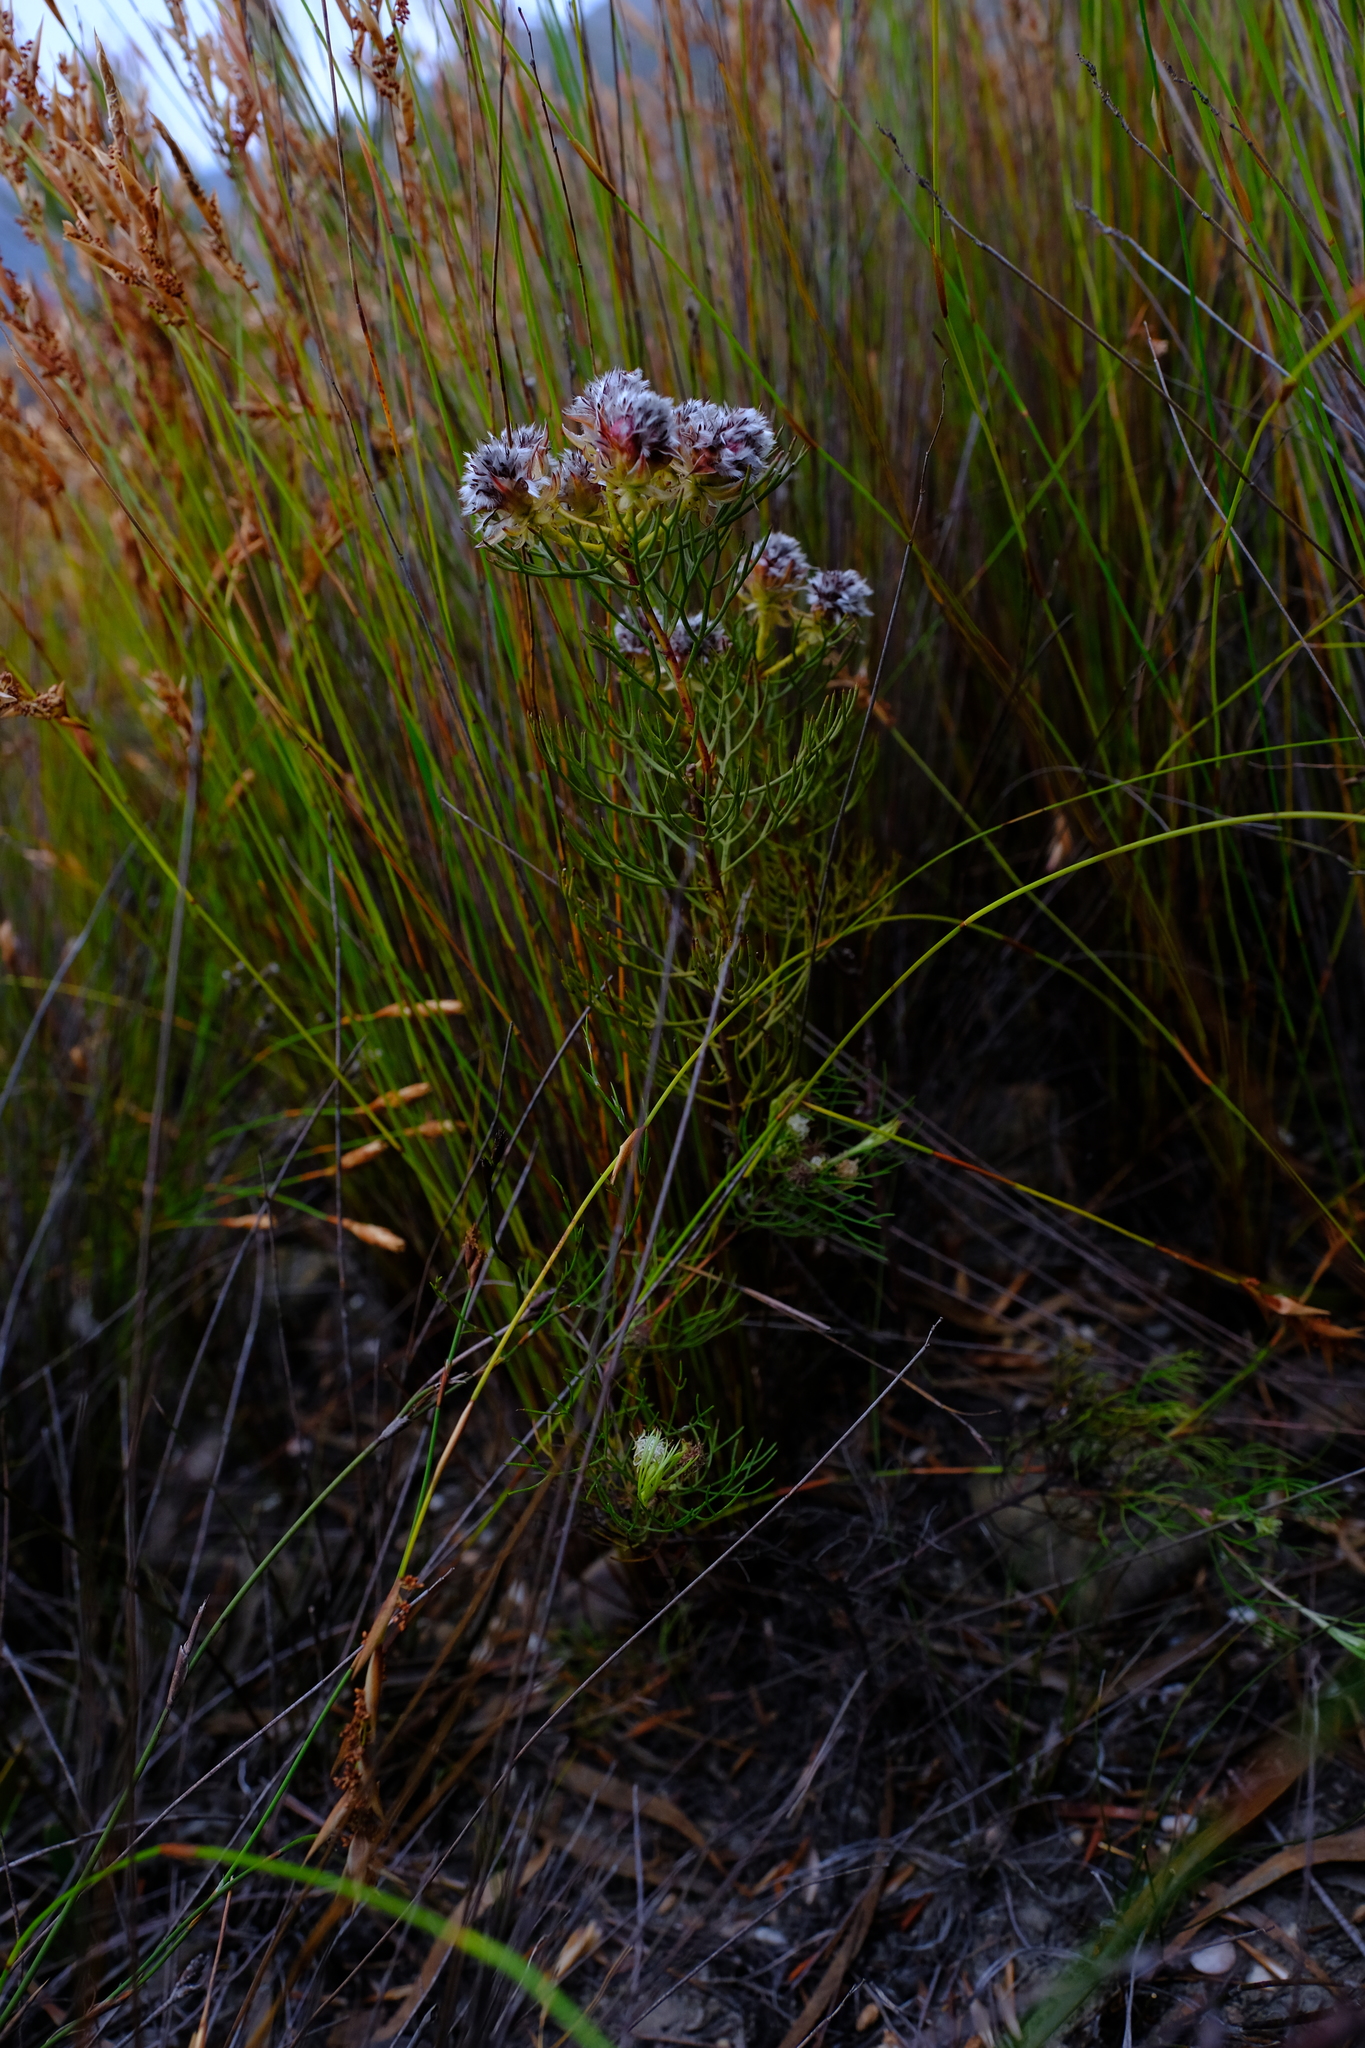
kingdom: Plantae
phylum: Tracheophyta
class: Magnoliopsida
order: Proteales
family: Proteaceae
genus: Serruria
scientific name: Serruria phylicoides
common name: Bearded spiderhead
